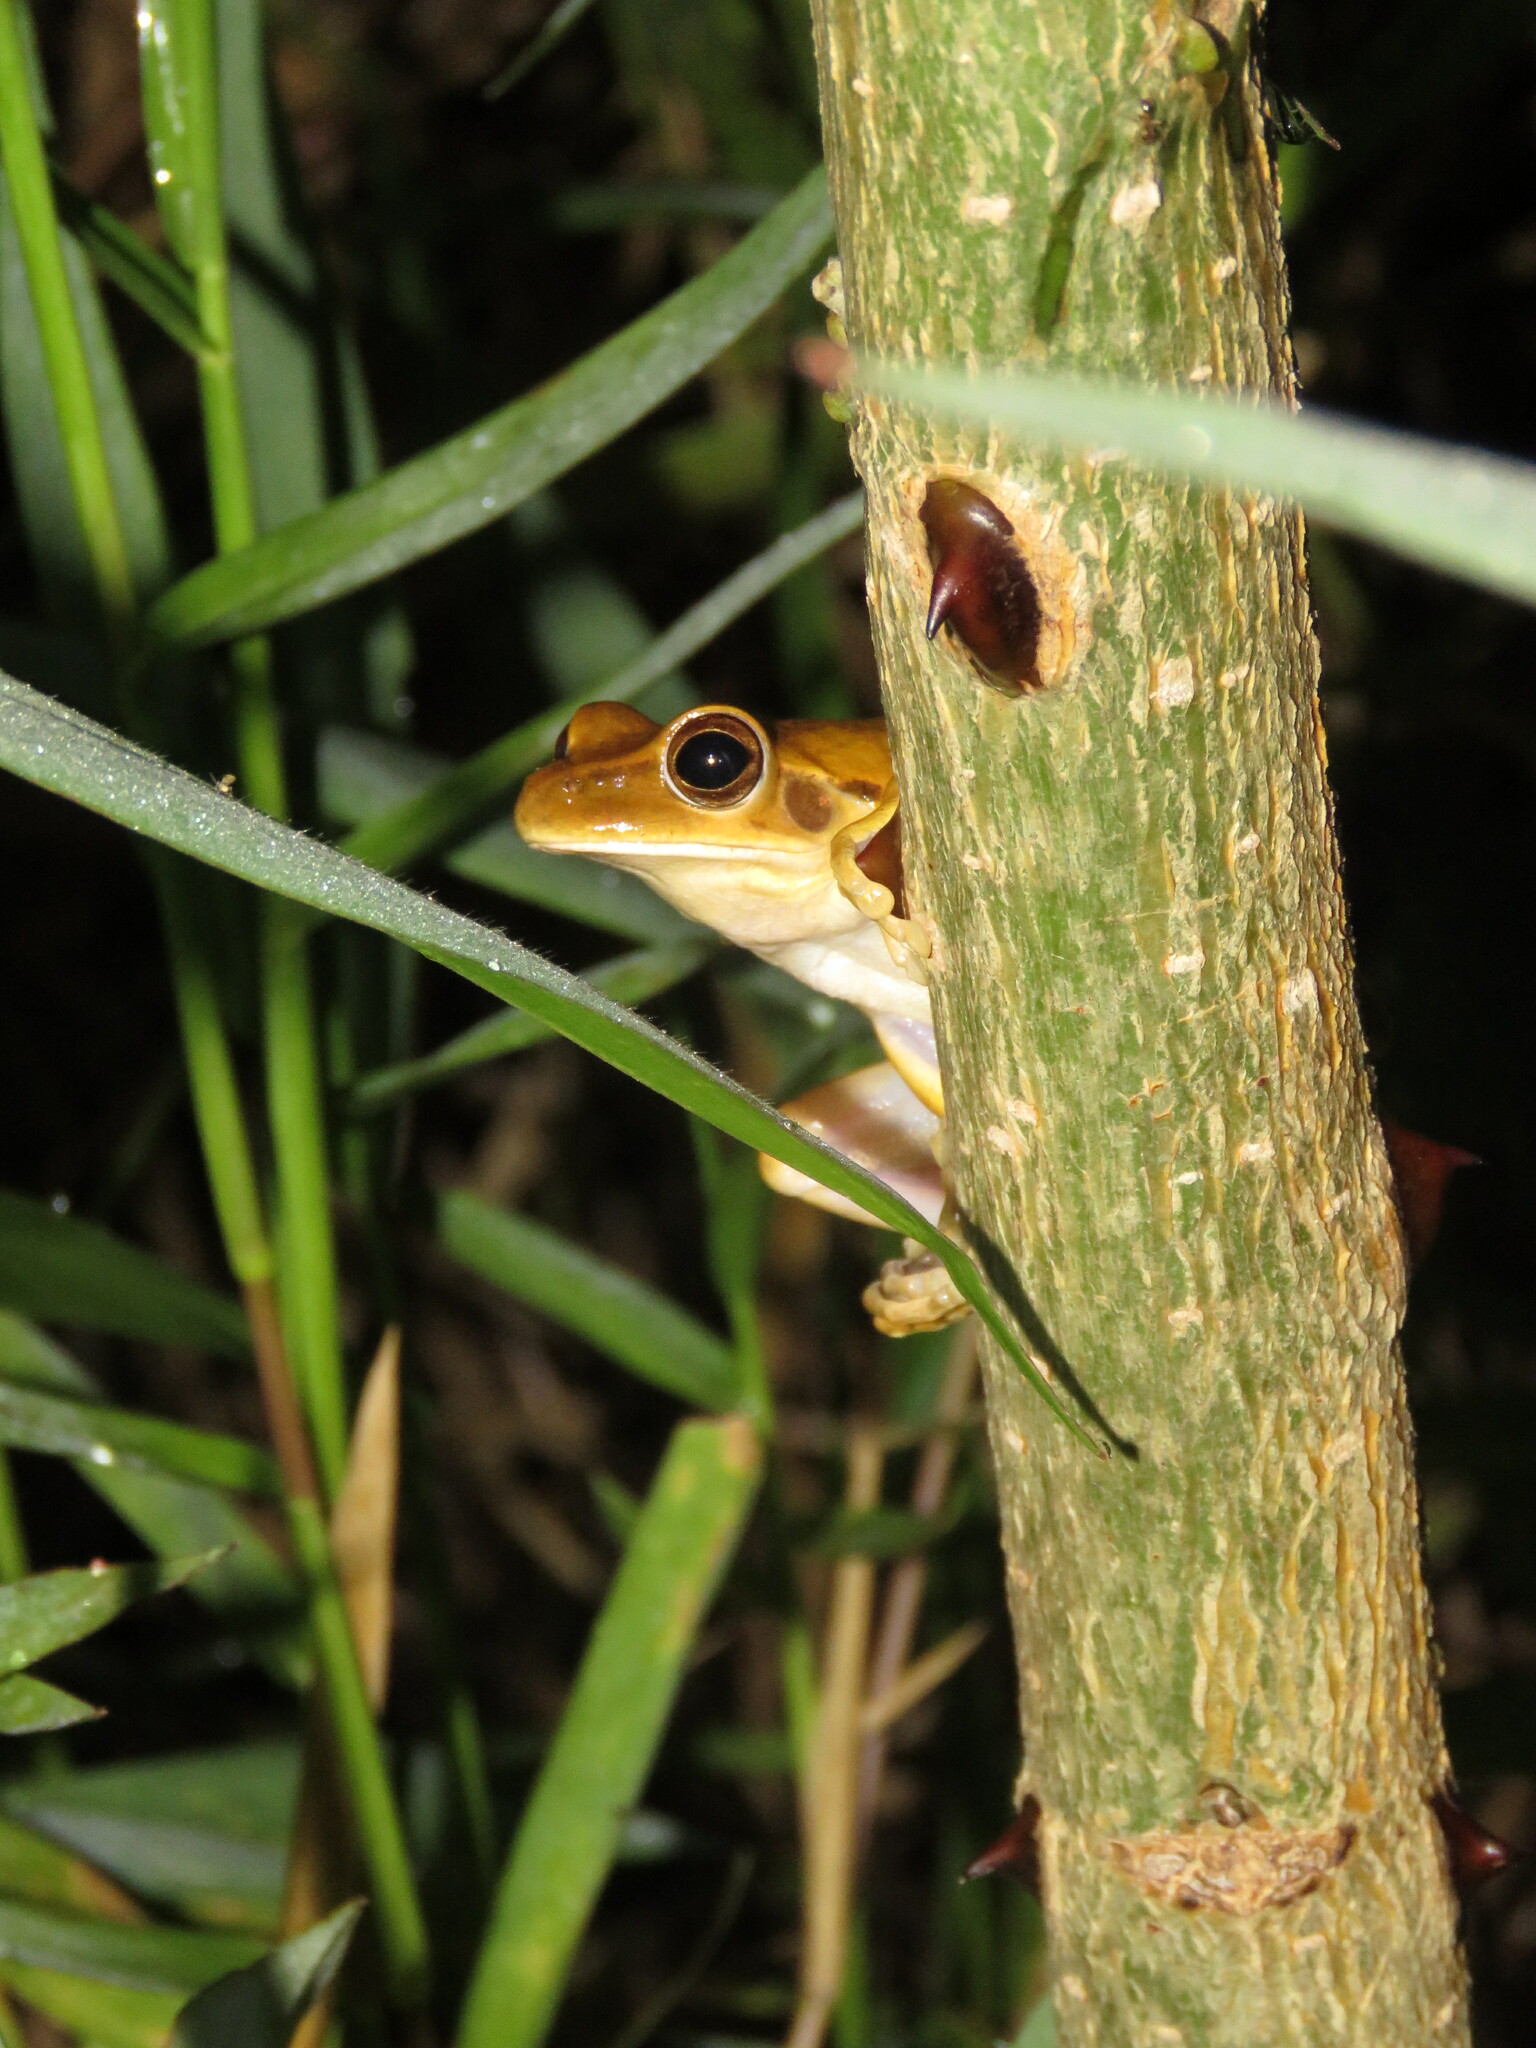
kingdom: Animalia
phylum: Chordata
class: Amphibia
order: Anura
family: Hylidae
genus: Boana
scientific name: Boana raniceps
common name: Chaco treefrog
